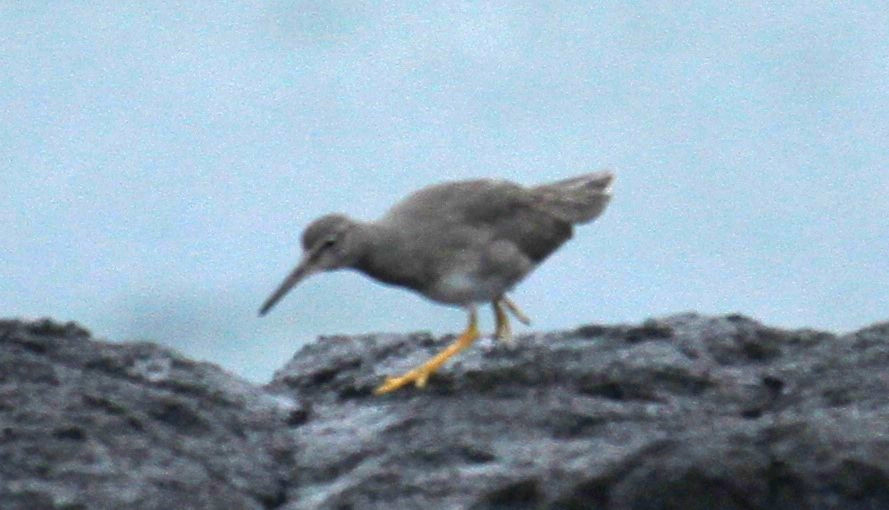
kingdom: Animalia
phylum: Chordata
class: Aves
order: Charadriiformes
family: Scolopacidae
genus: Tringa
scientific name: Tringa incana
